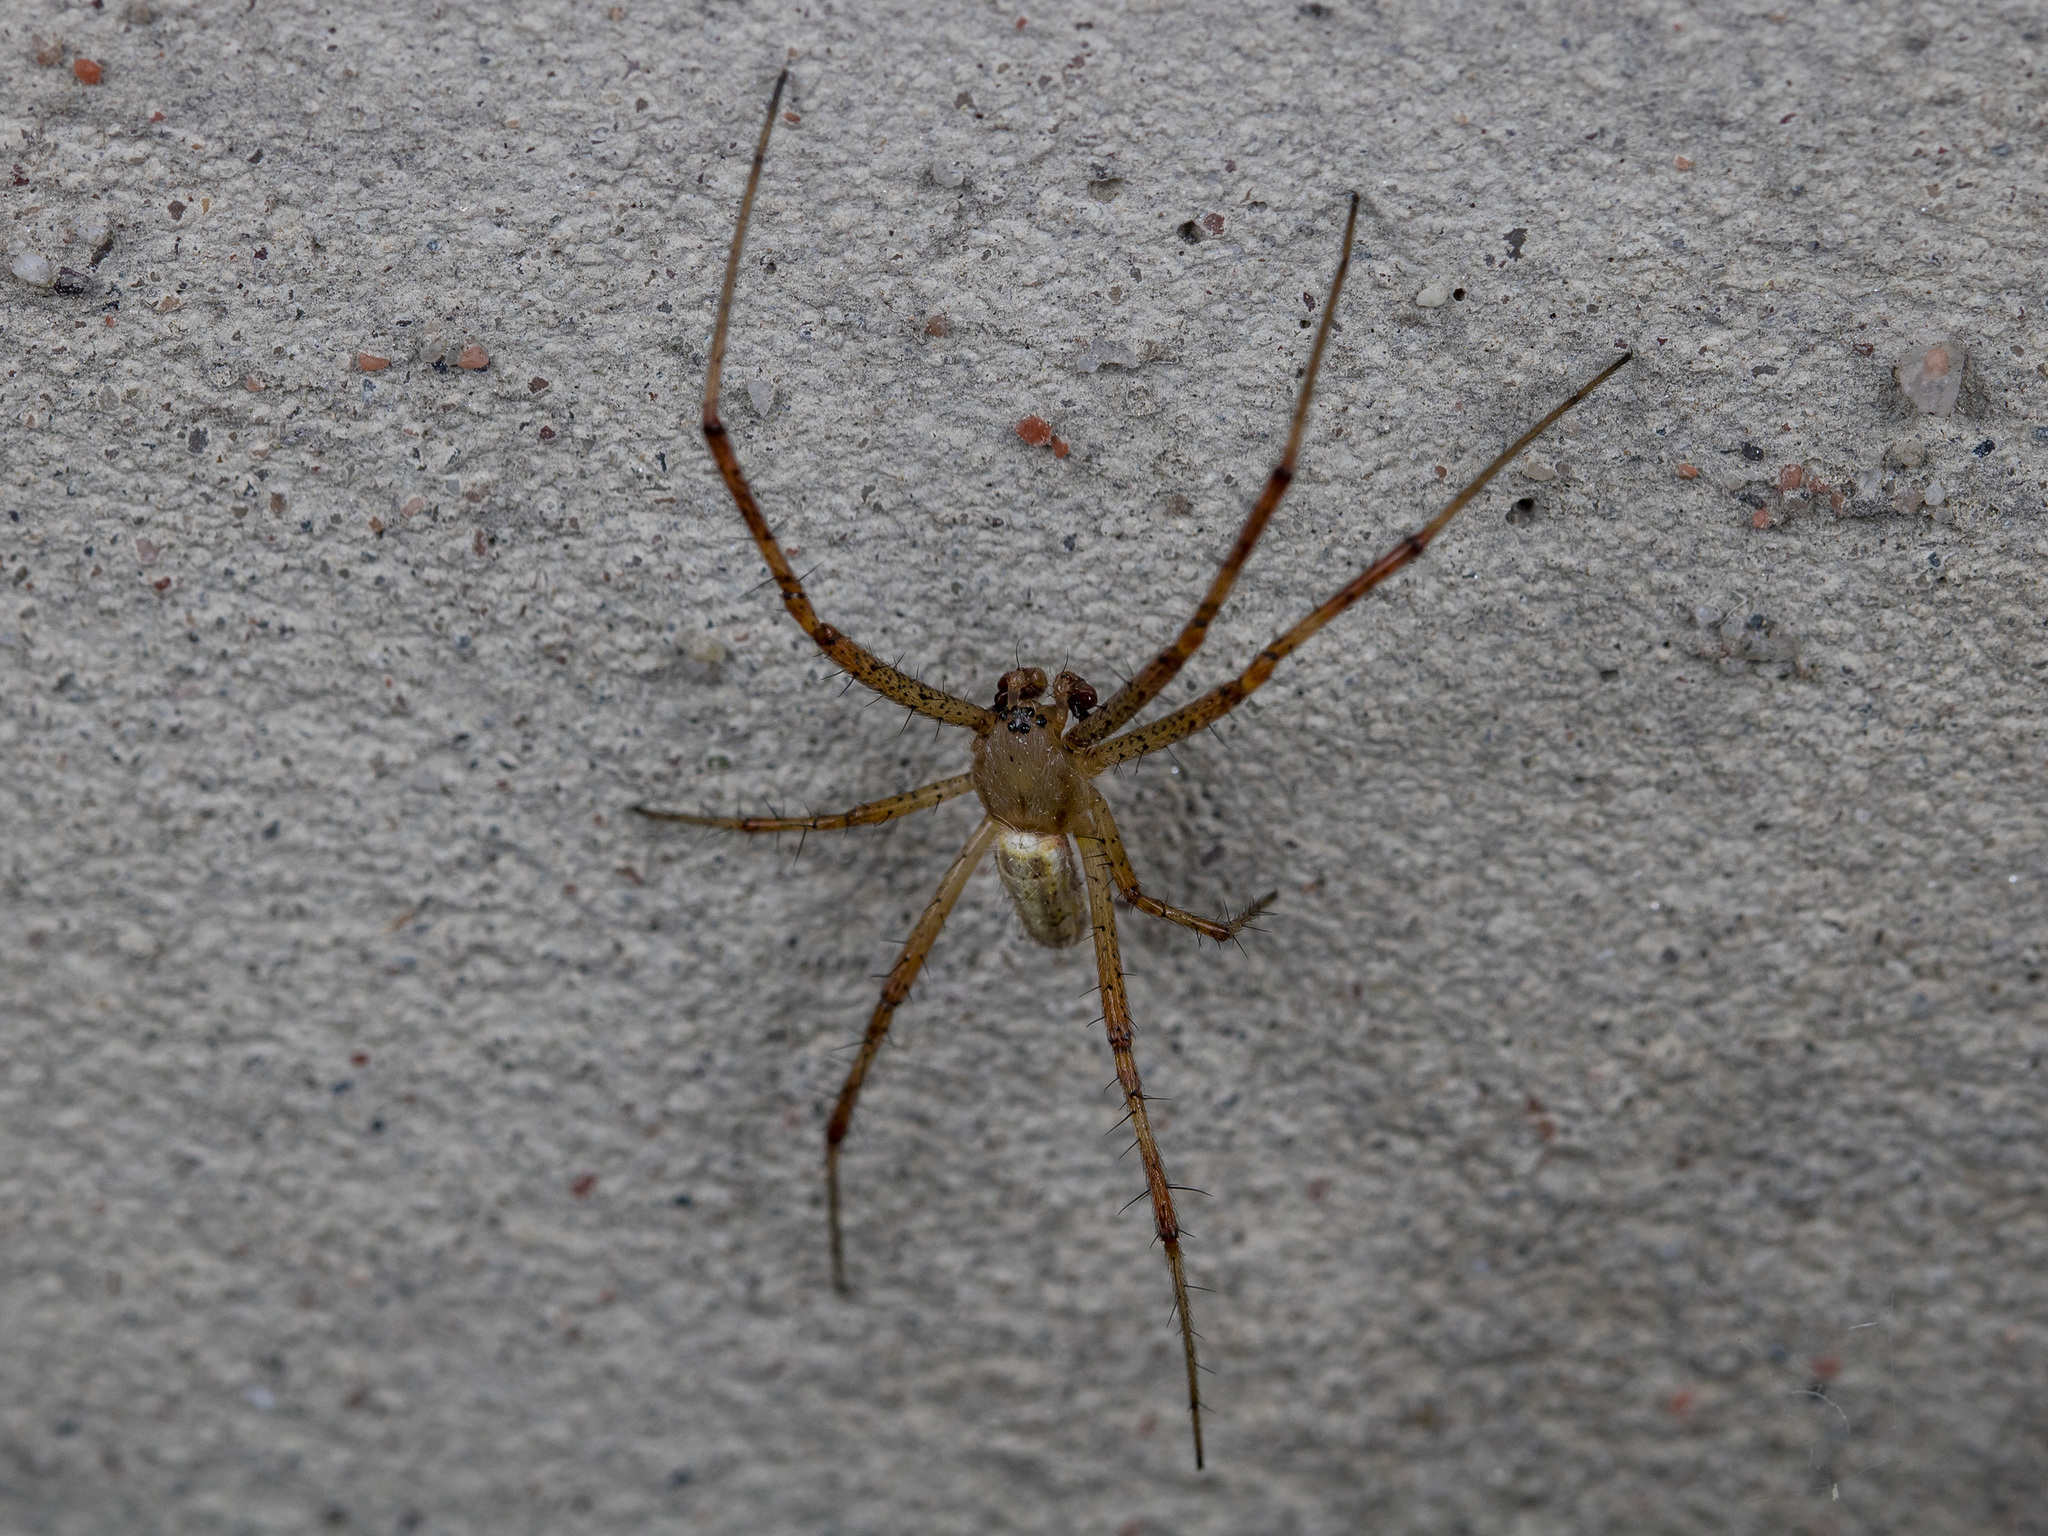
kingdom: Animalia
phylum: Arthropoda
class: Arachnida
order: Araneae
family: Araneidae
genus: Argiope
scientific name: Argiope bruennichi
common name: Wasp spider
